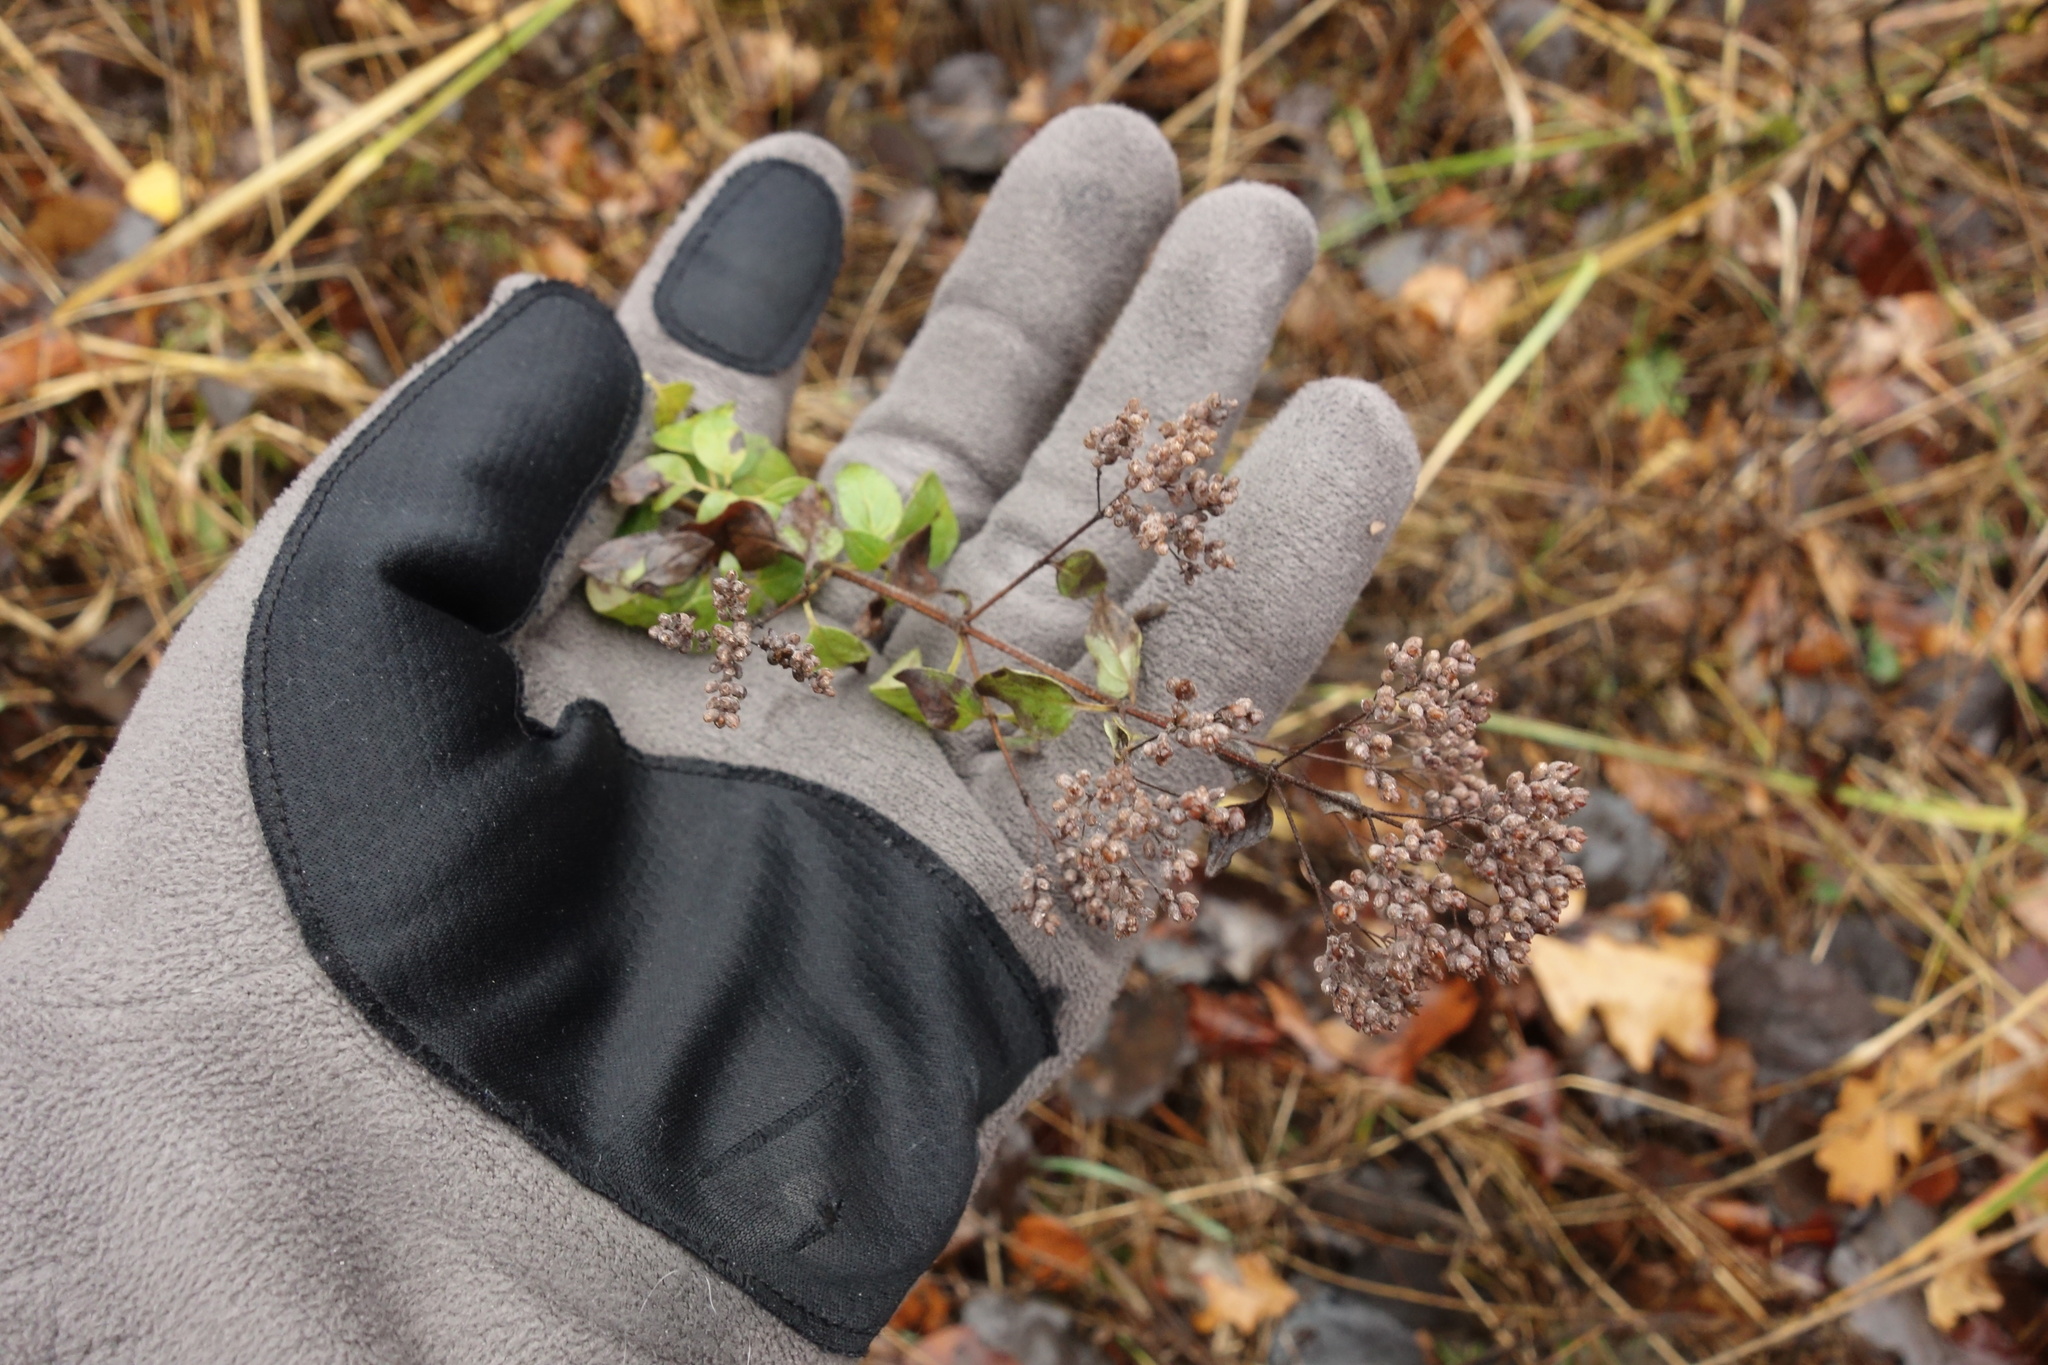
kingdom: Plantae
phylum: Tracheophyta
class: Magnoliopsida
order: Lamiales
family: Lamiaceae
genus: Origanum
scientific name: Origanum vulgare
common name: Wild marjoram
